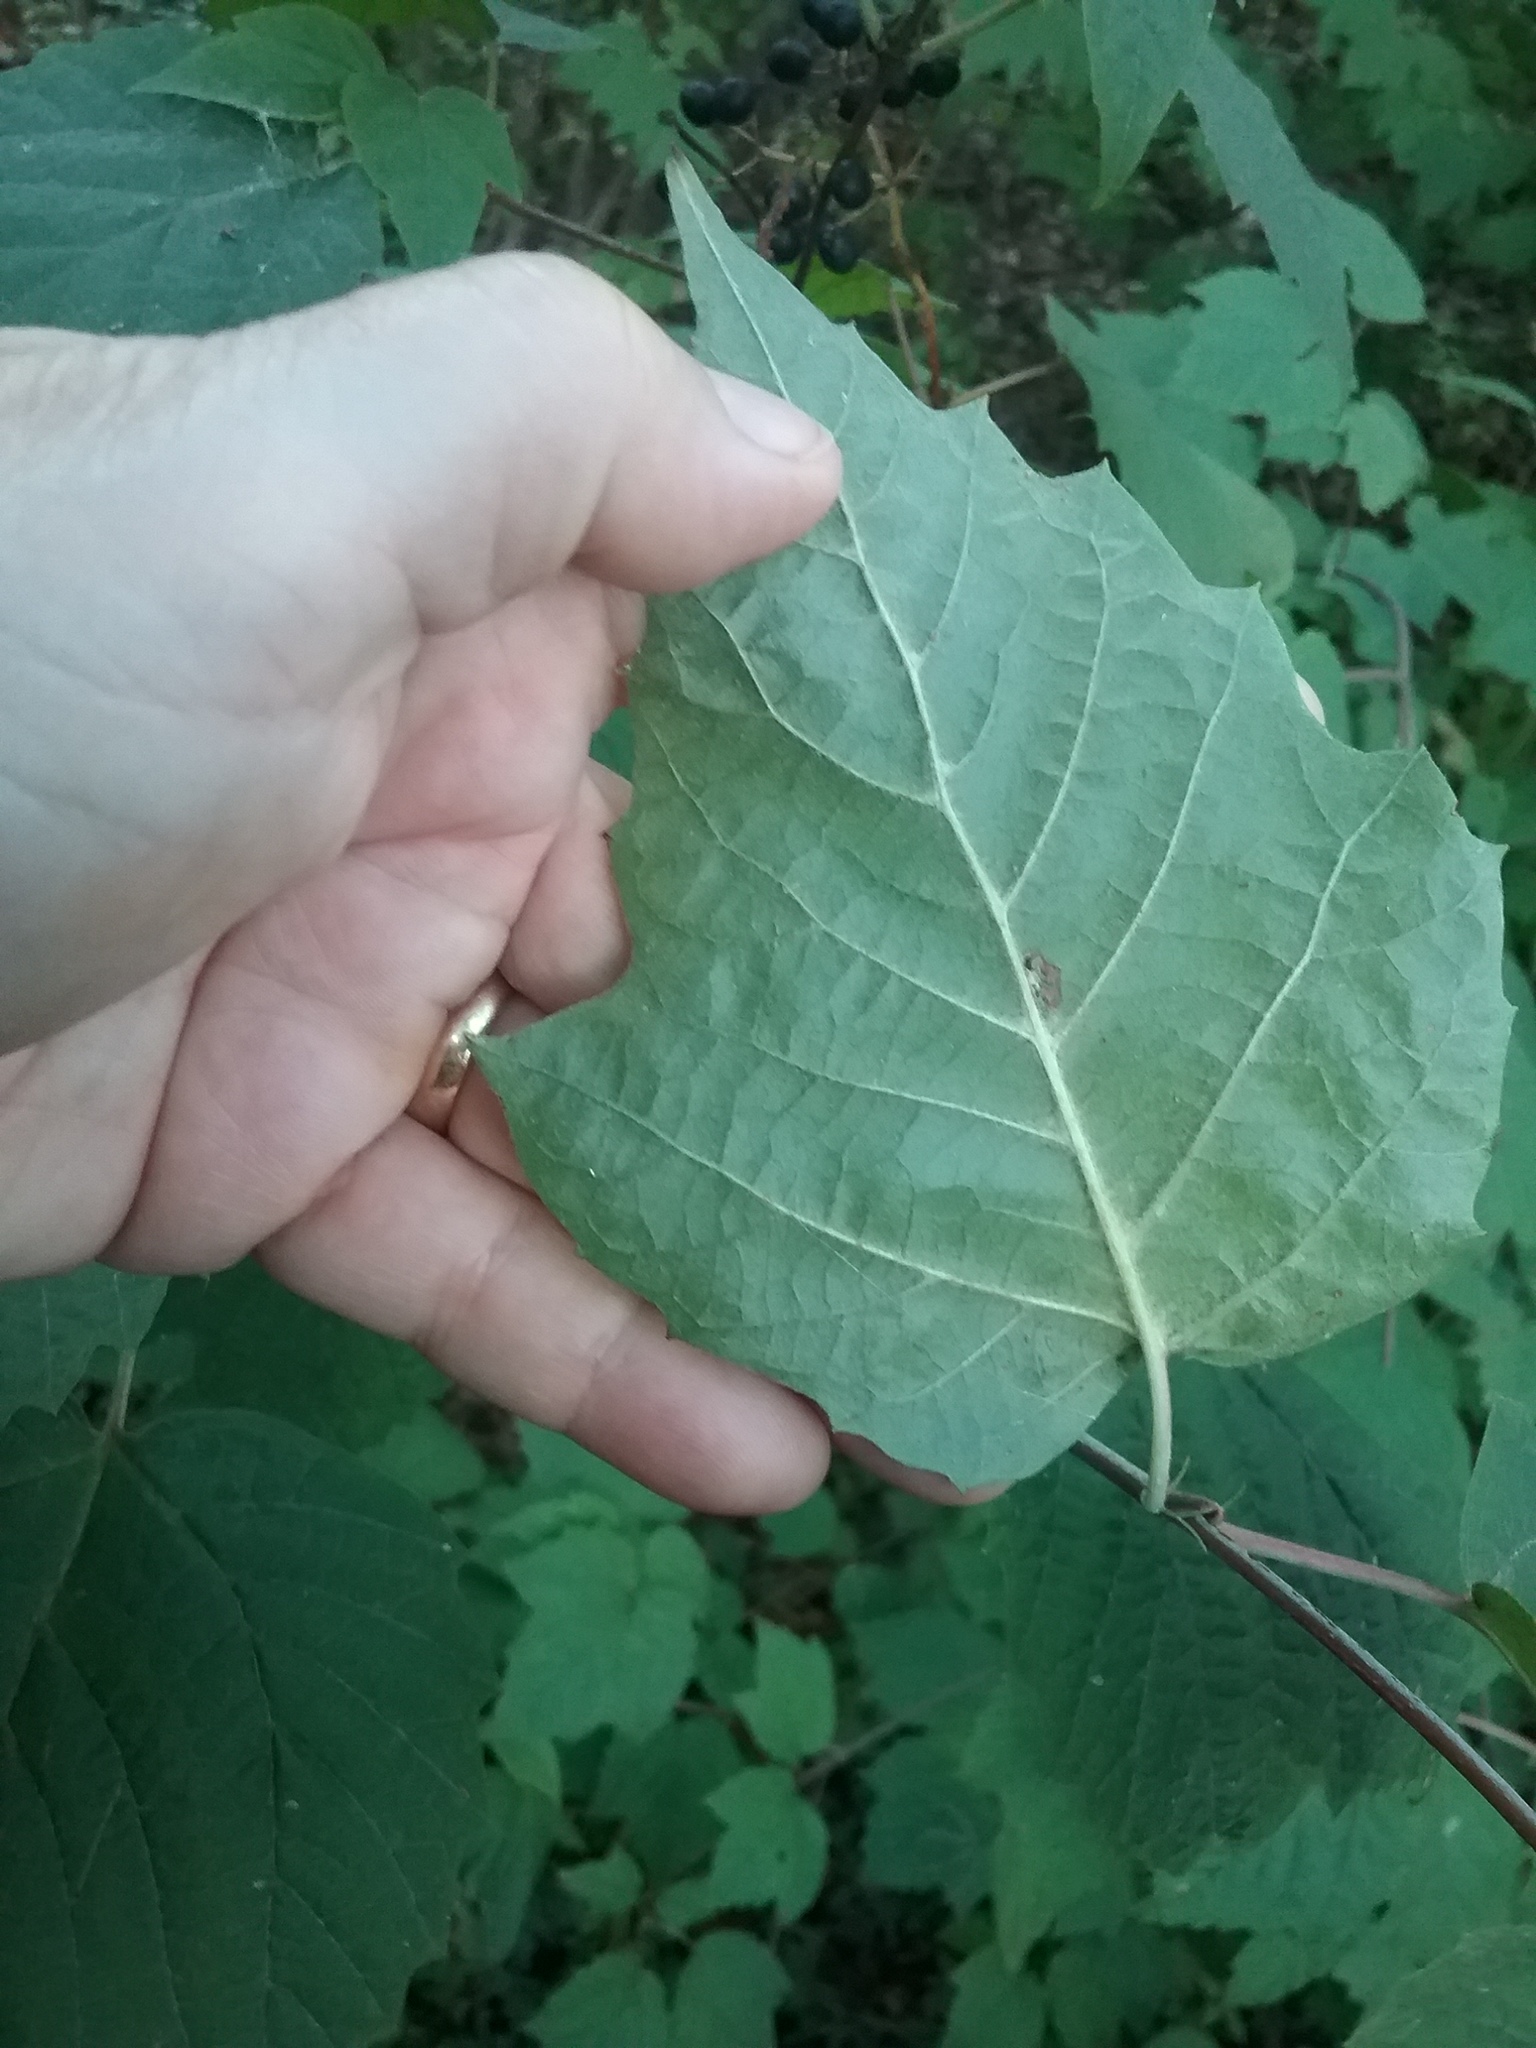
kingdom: Plantae
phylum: Tracheophyta
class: Magnoliopsida
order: Dipsacales
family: Viburnaceae
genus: Viburnum
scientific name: Viburnum acerifolium
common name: Dockmackie
